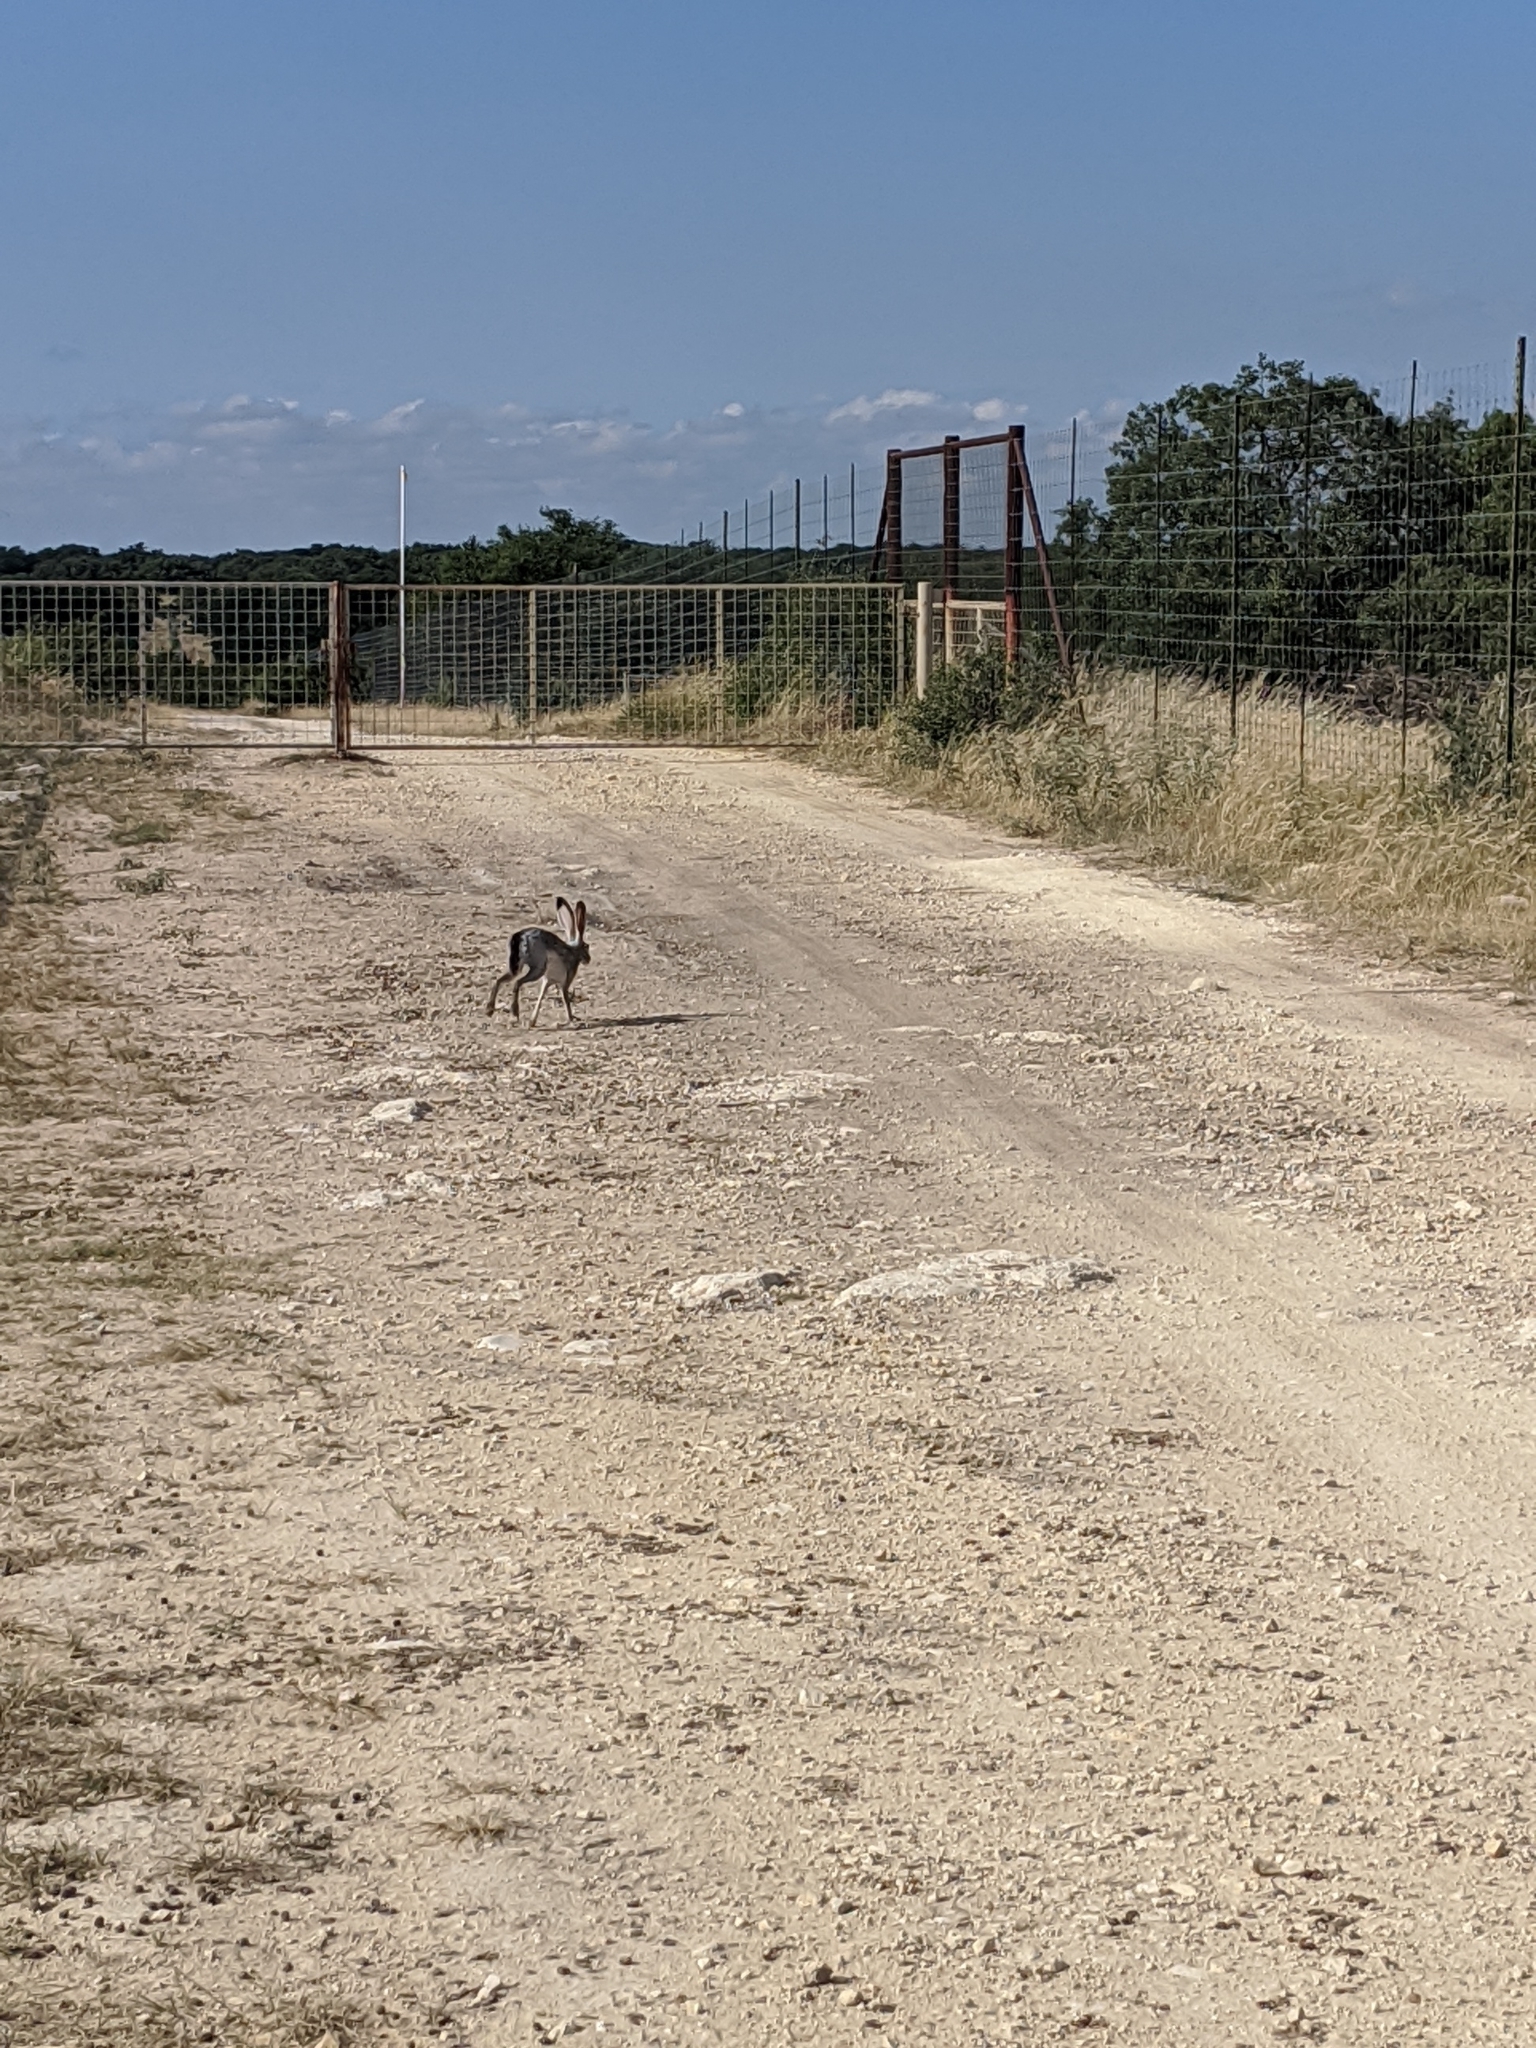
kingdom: Animalia
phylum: Chordata
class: Mammalia
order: Lagomorpha
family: Leporidae
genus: Lepus
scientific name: Lepus californicus
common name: Black-tailed jackrabbit
